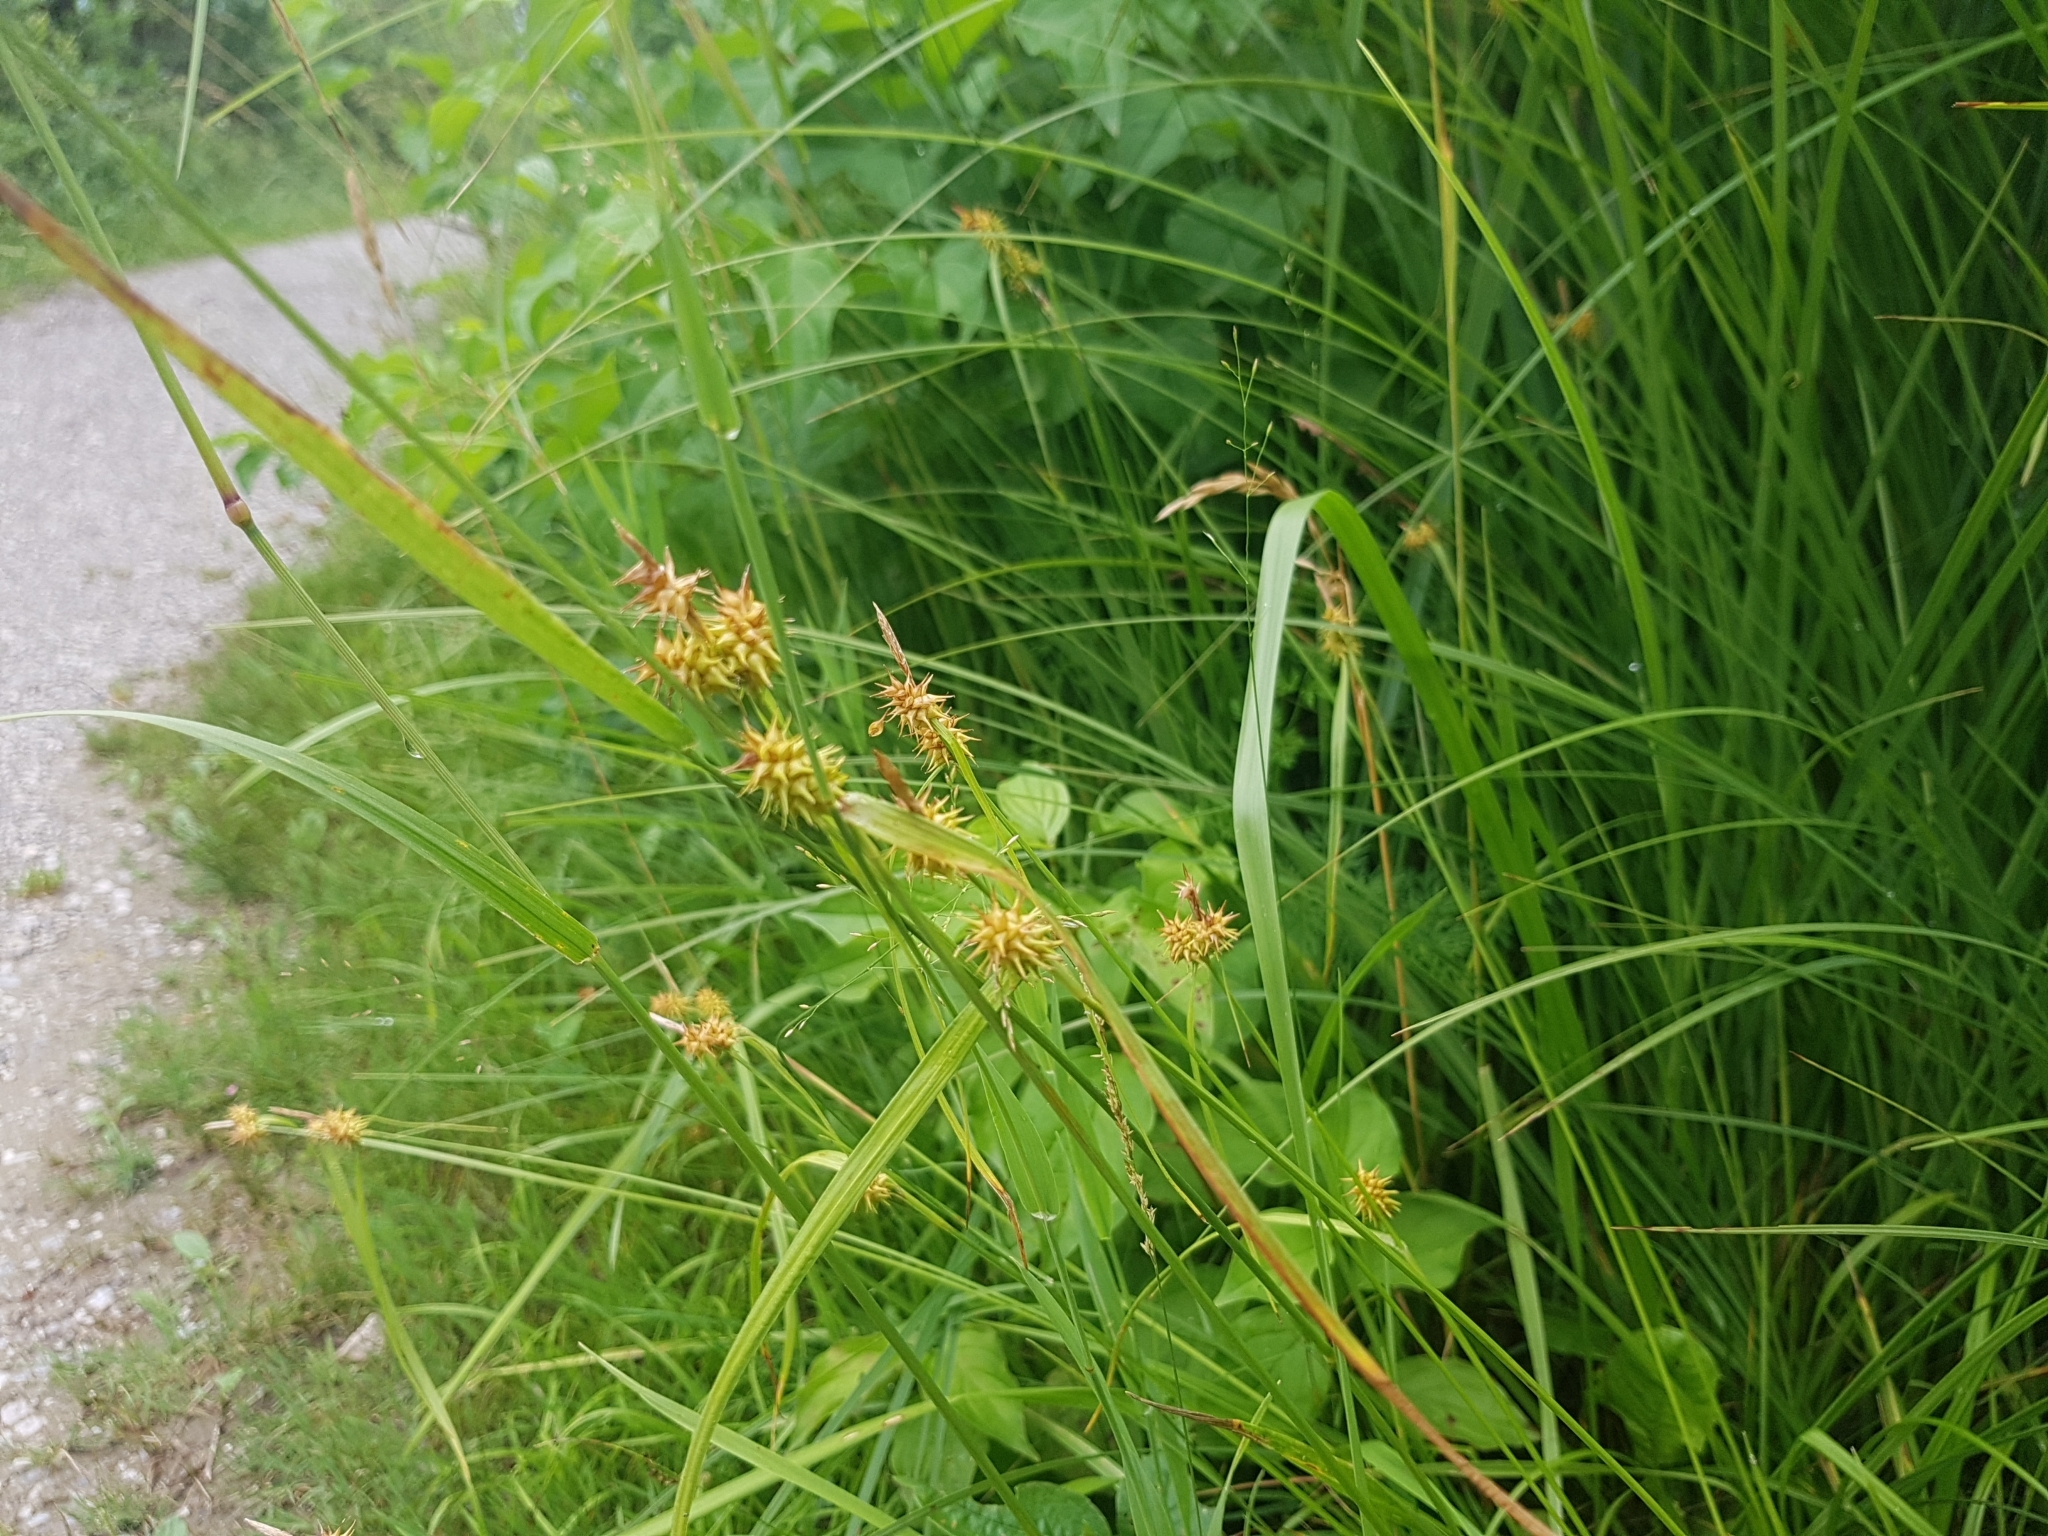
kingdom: Plantae
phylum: Tracheophyta
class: Liliopsida
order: Poales
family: Cyperaceae
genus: Carex
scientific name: Carex flava
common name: Large yellow-sedge
